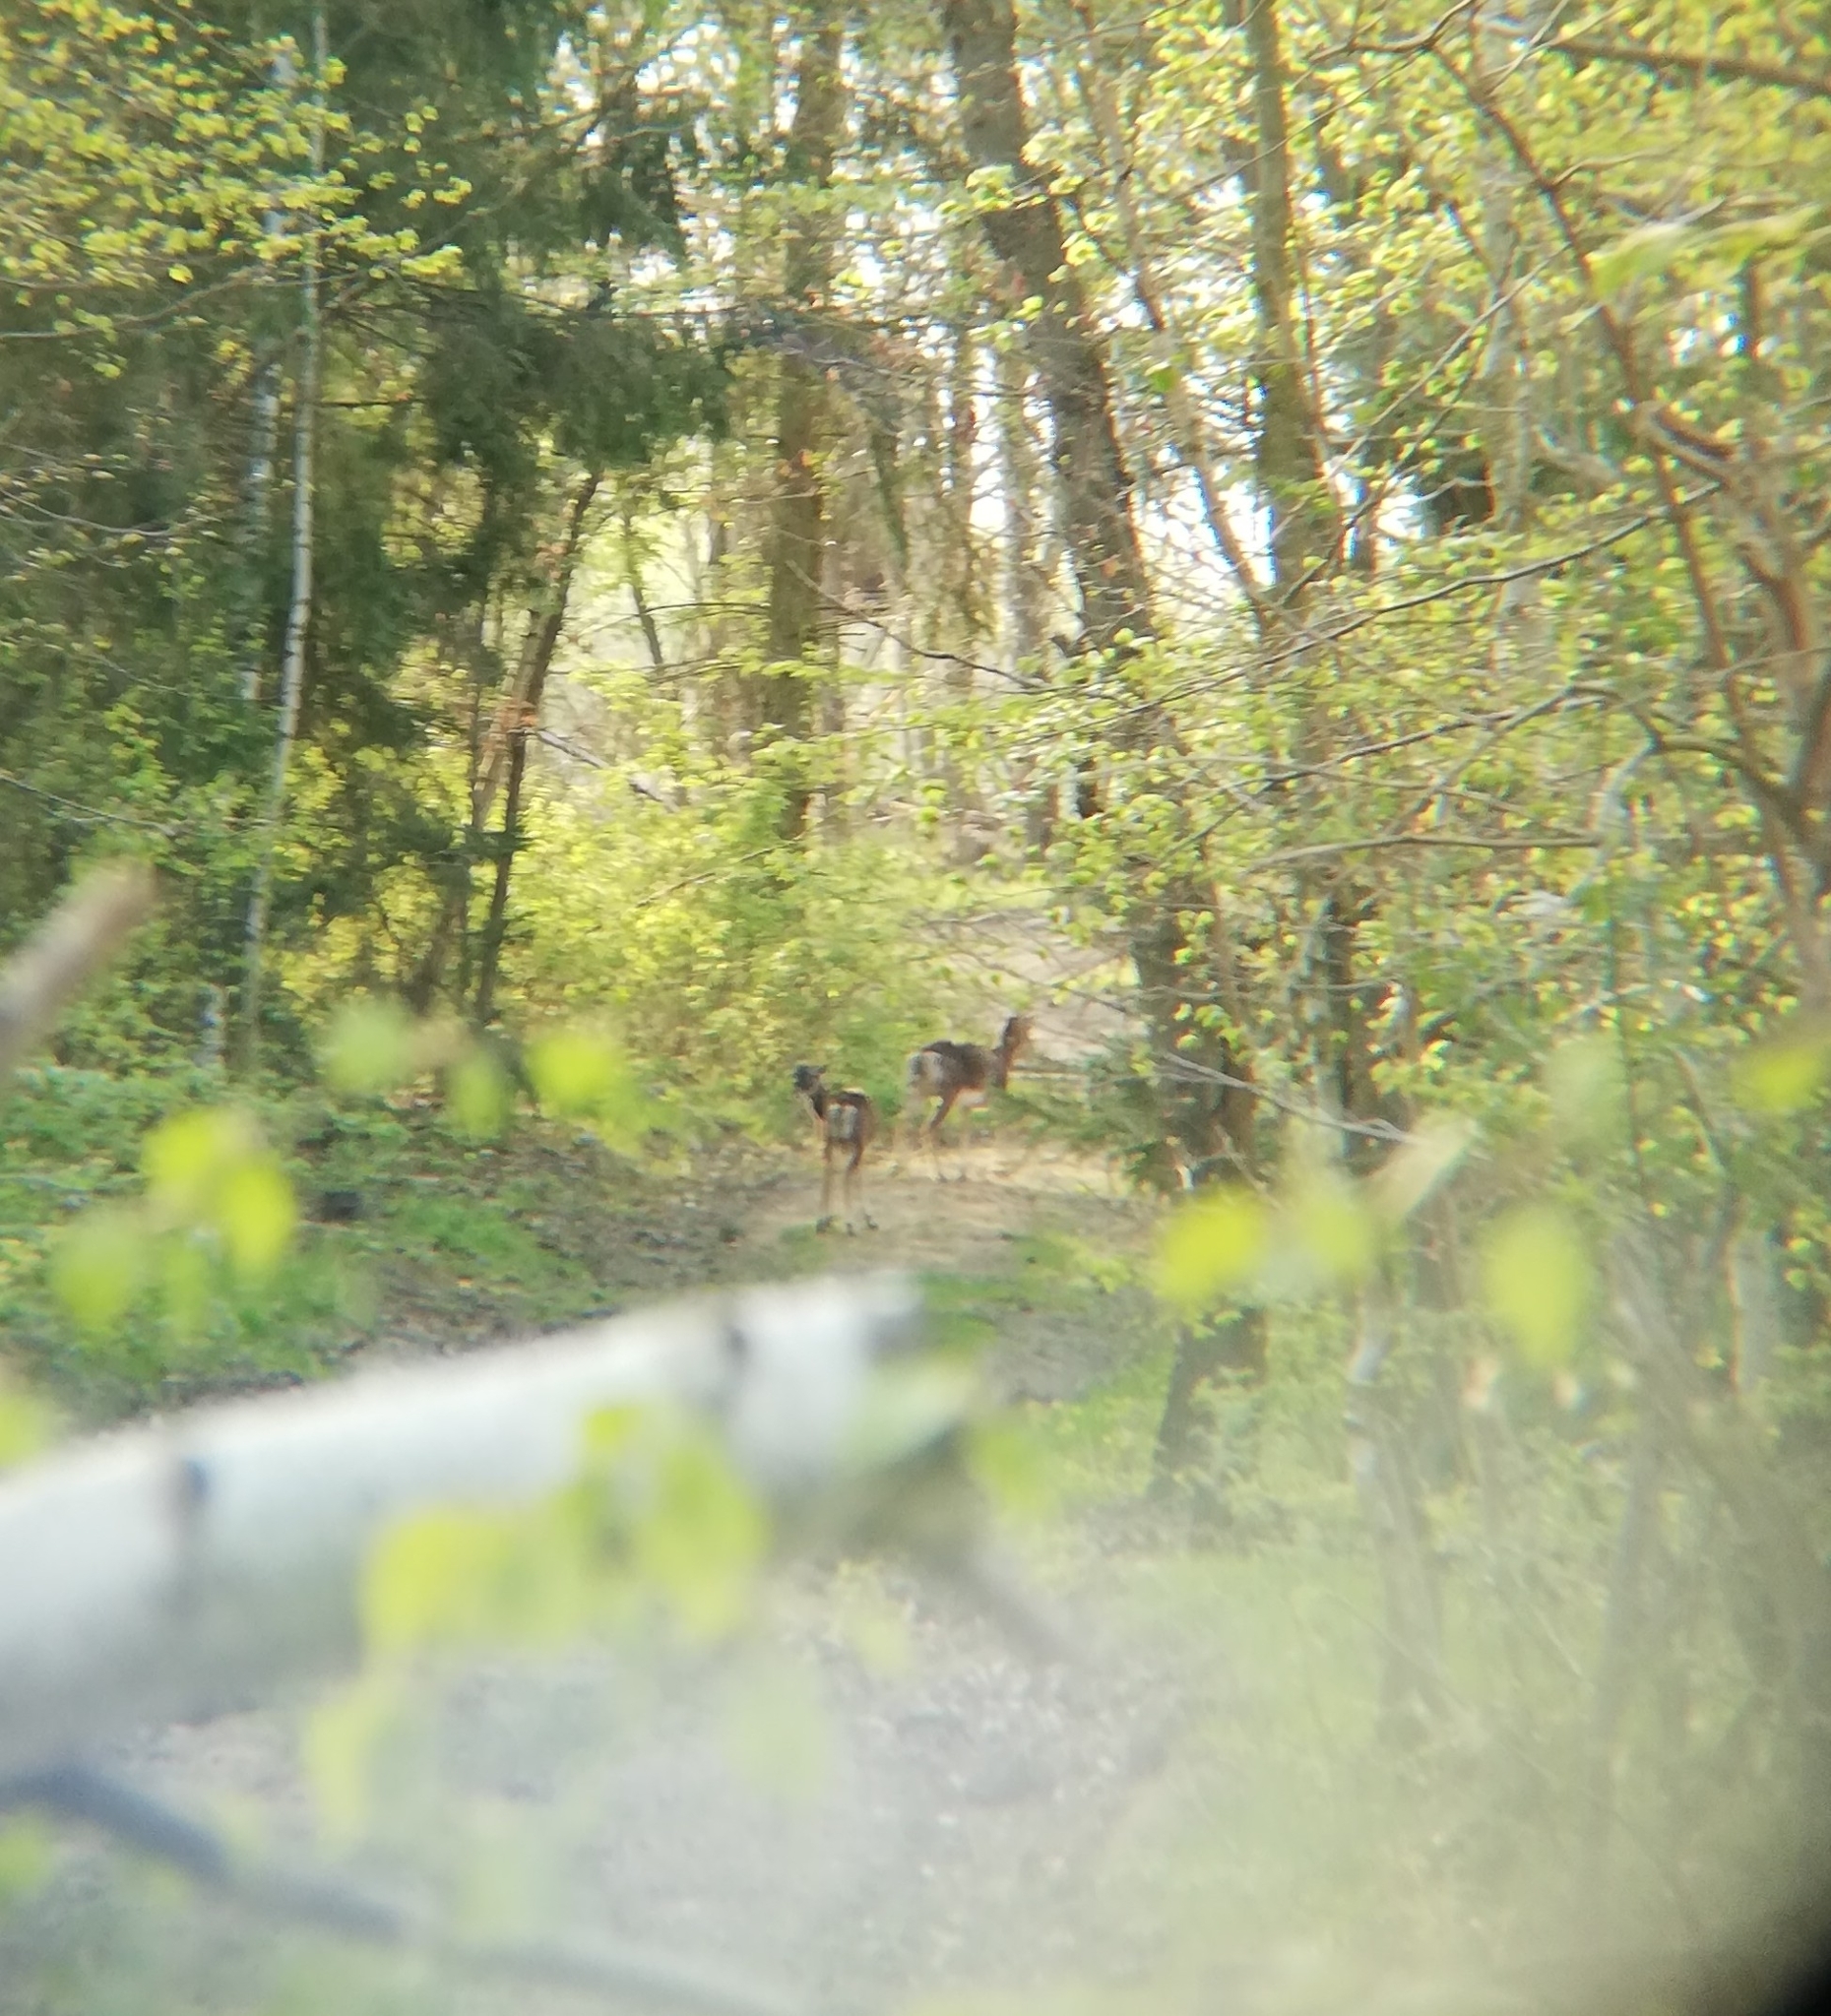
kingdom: Animalia
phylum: Chordata
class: Mammalia
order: Artiodactyla
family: Bovidae
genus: Ovis
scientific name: Ovis aries
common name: Domestic sheep
